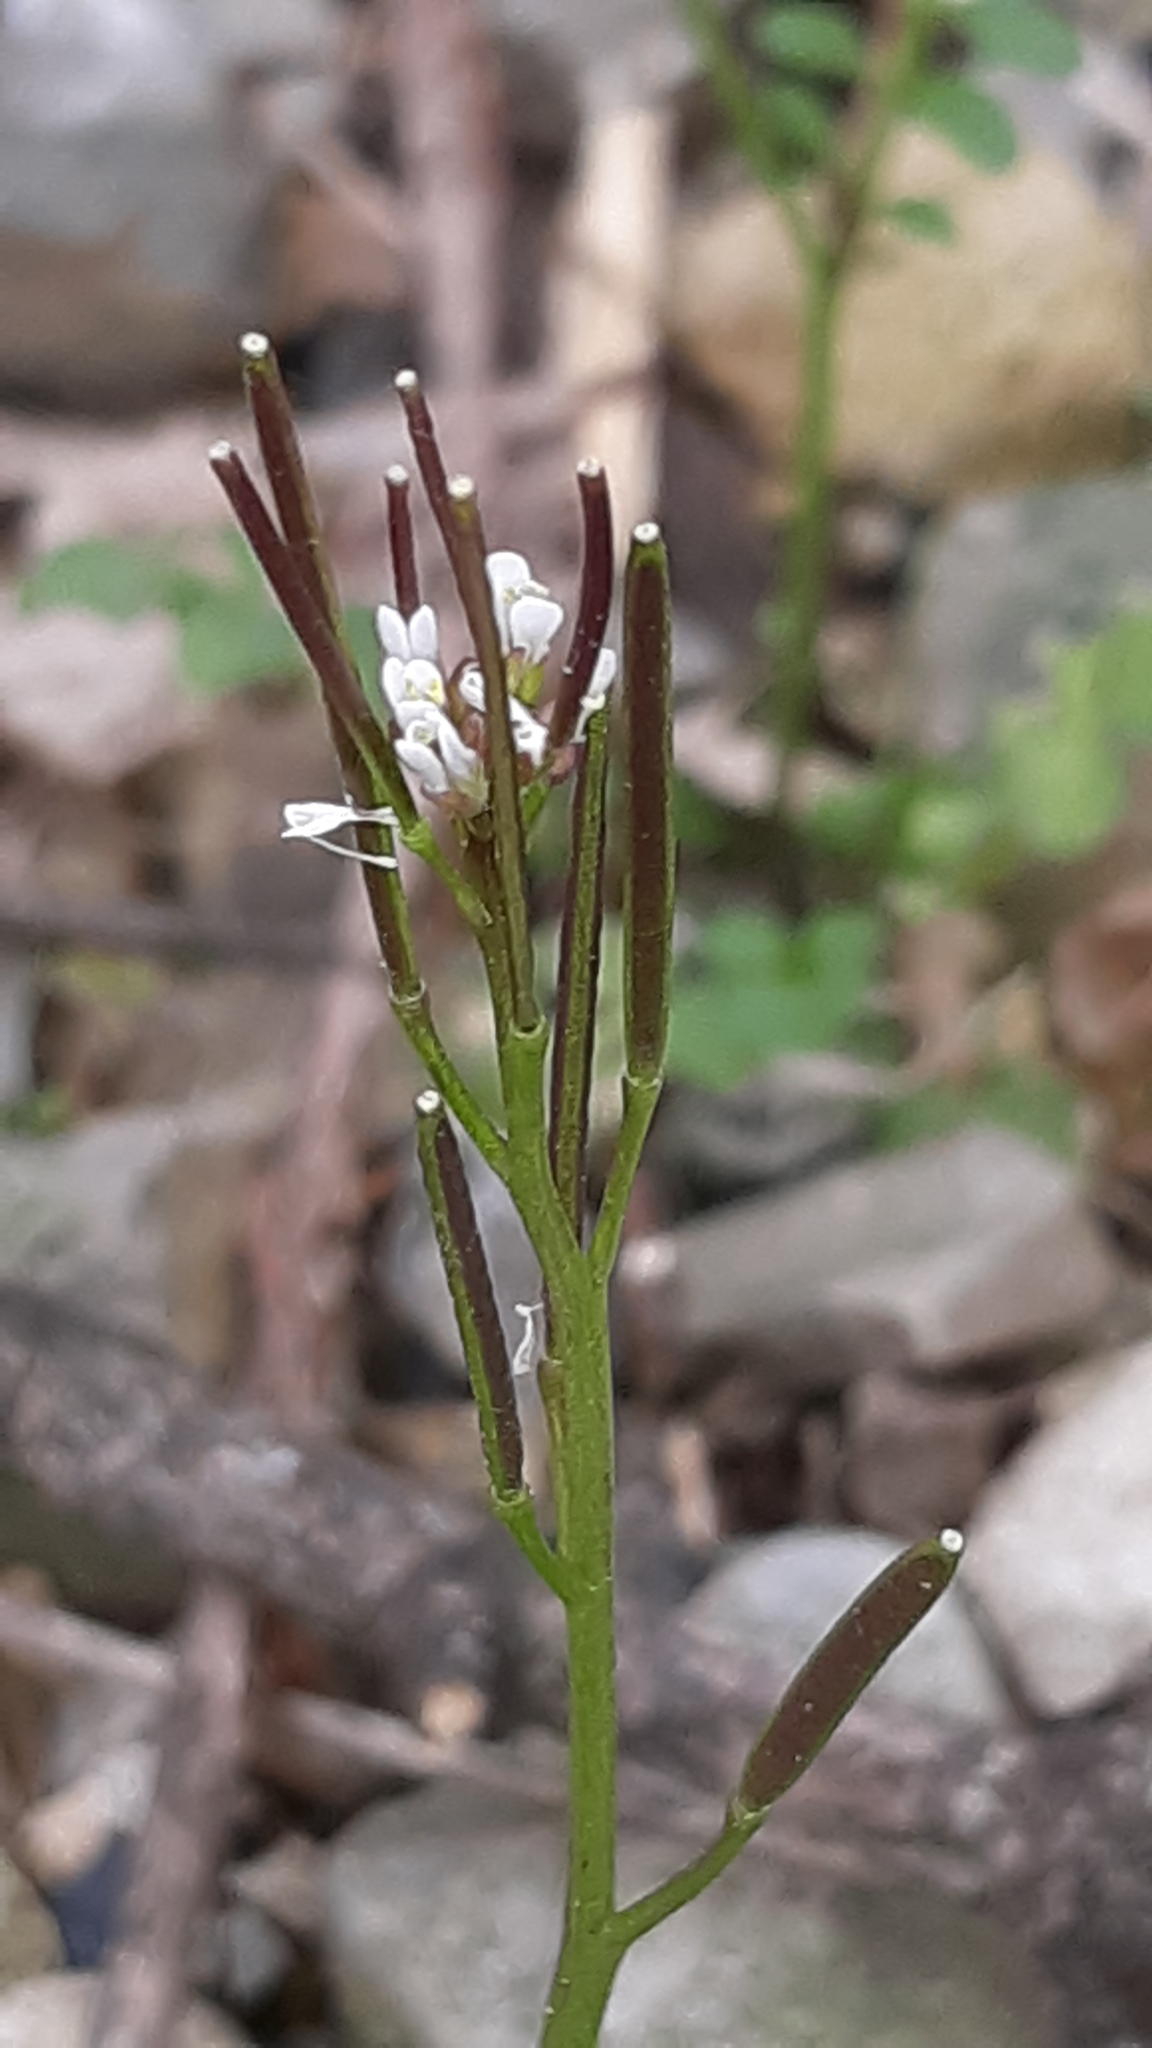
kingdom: Plantae
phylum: Tracheophyta
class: Magnoliopsida
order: Brassicales
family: Brassicaceae
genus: Cardamine
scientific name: Cardamine hirsuta
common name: Hairy bittercress
